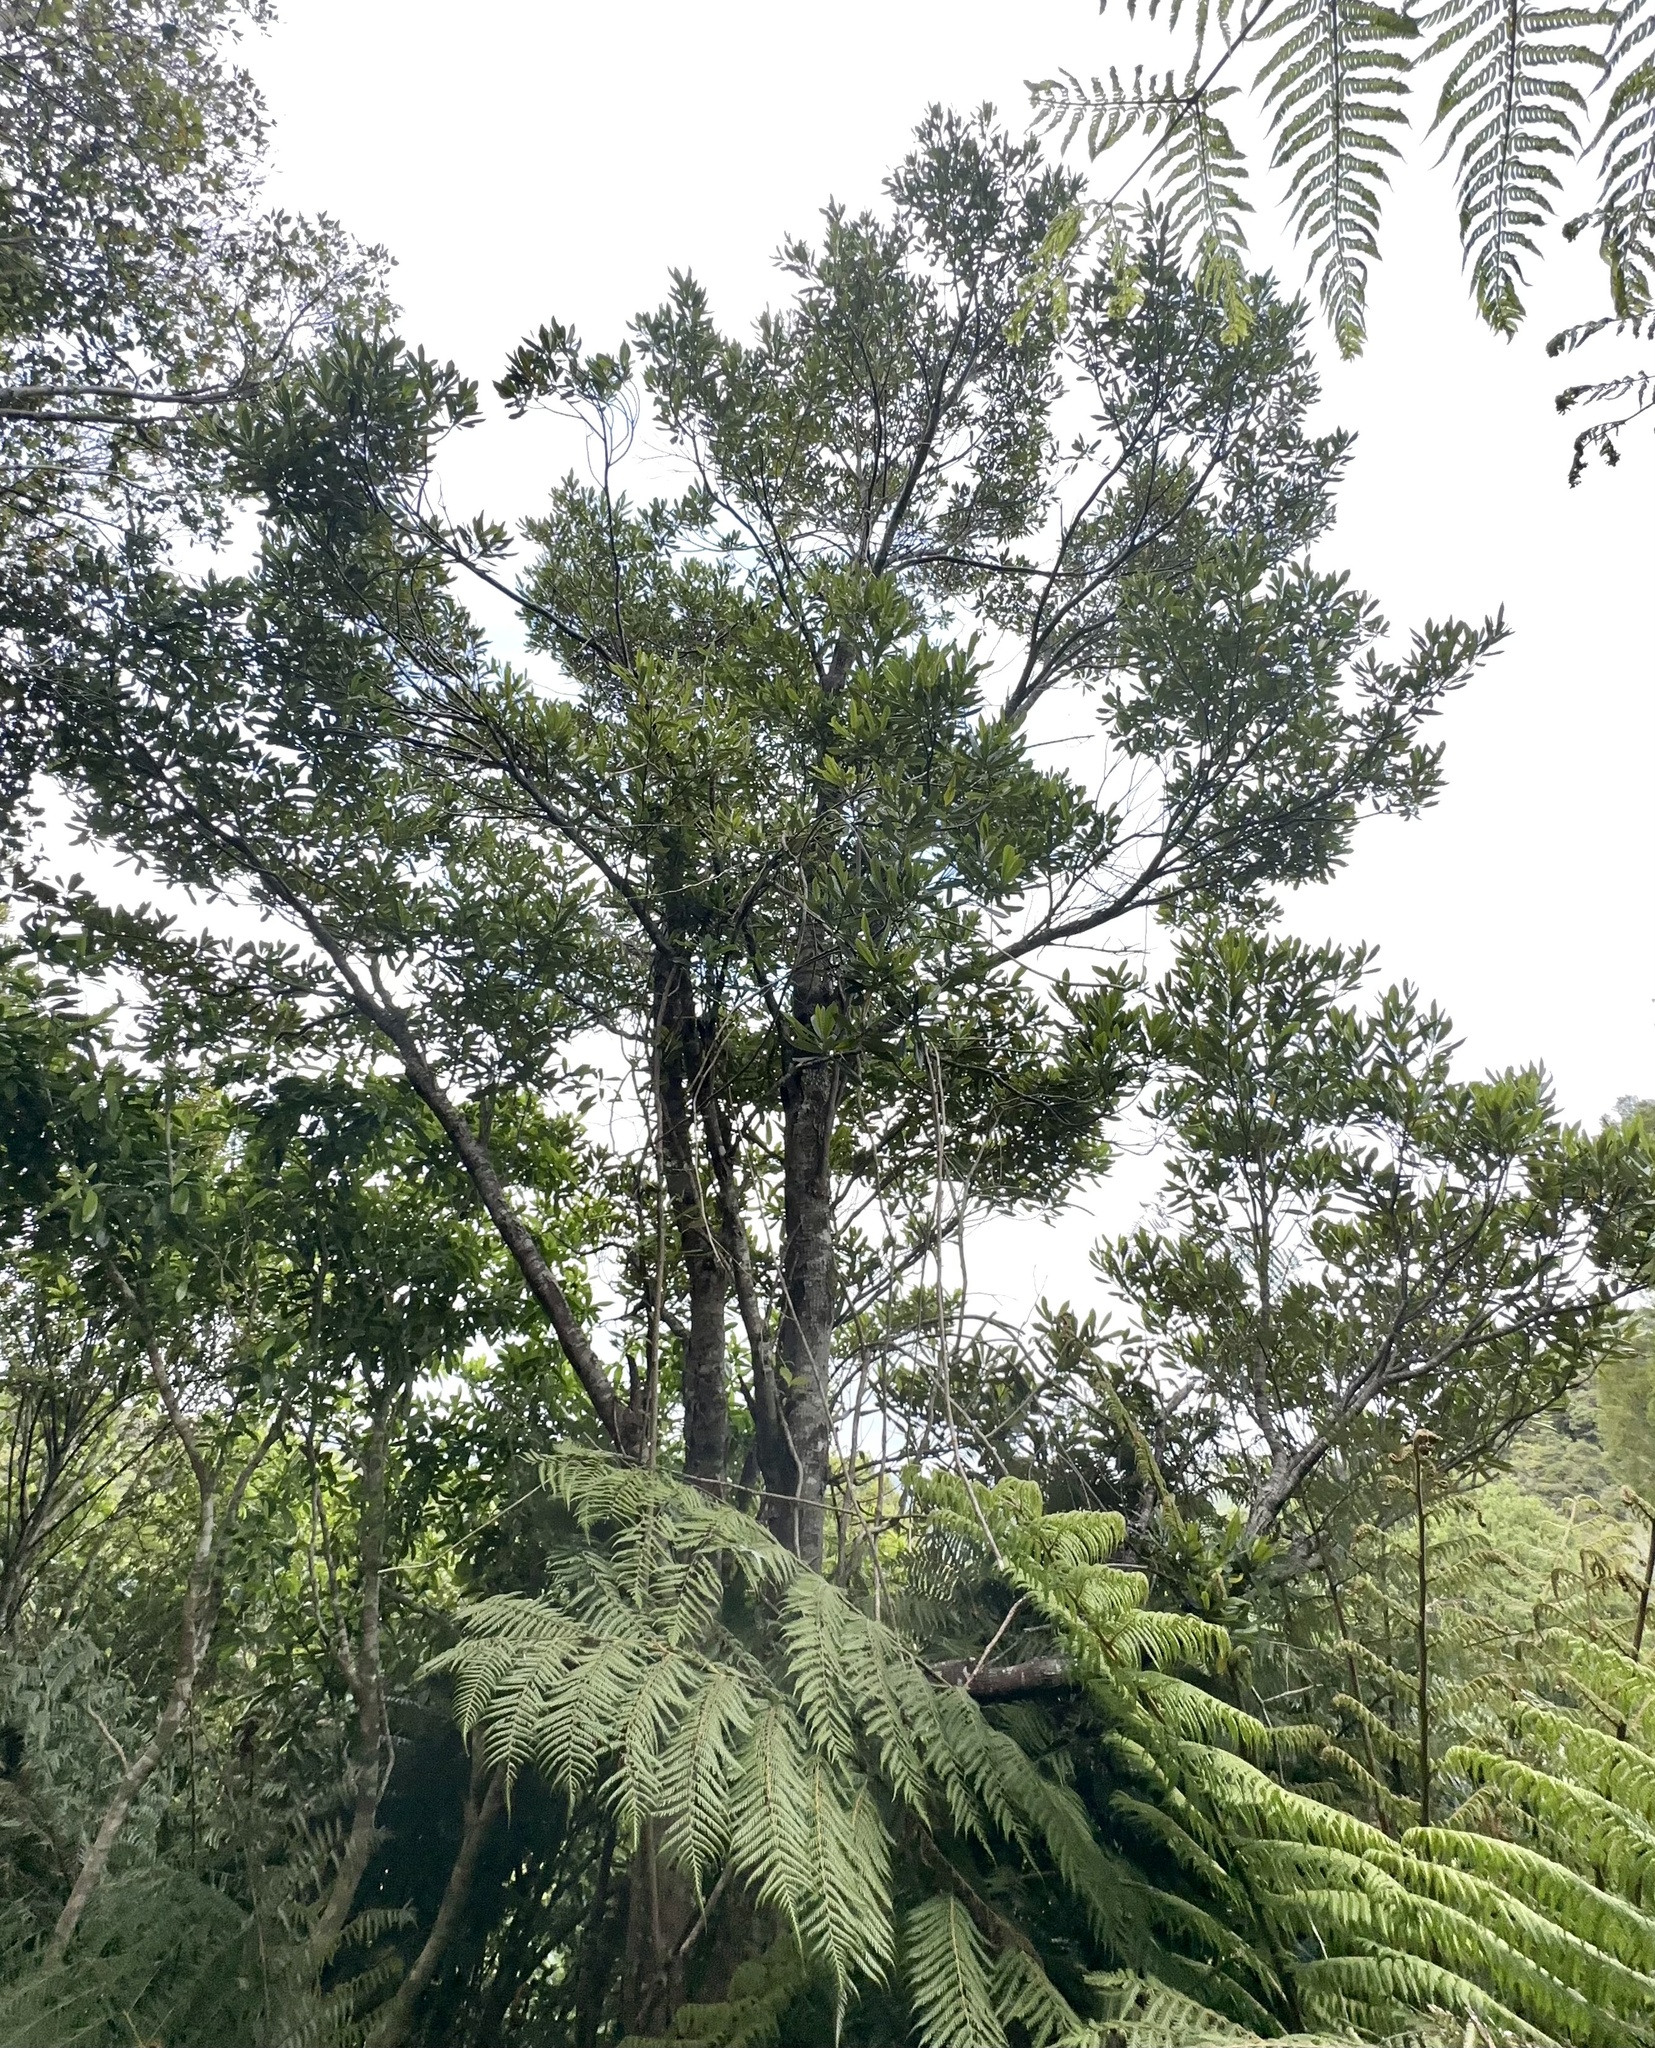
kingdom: Plantae
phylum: Tracheophyta
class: Magnoliopsida
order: Oxalidales
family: Elaeocarpaceae
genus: Elaeocarpus
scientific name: Elaeocarpus dentatus
